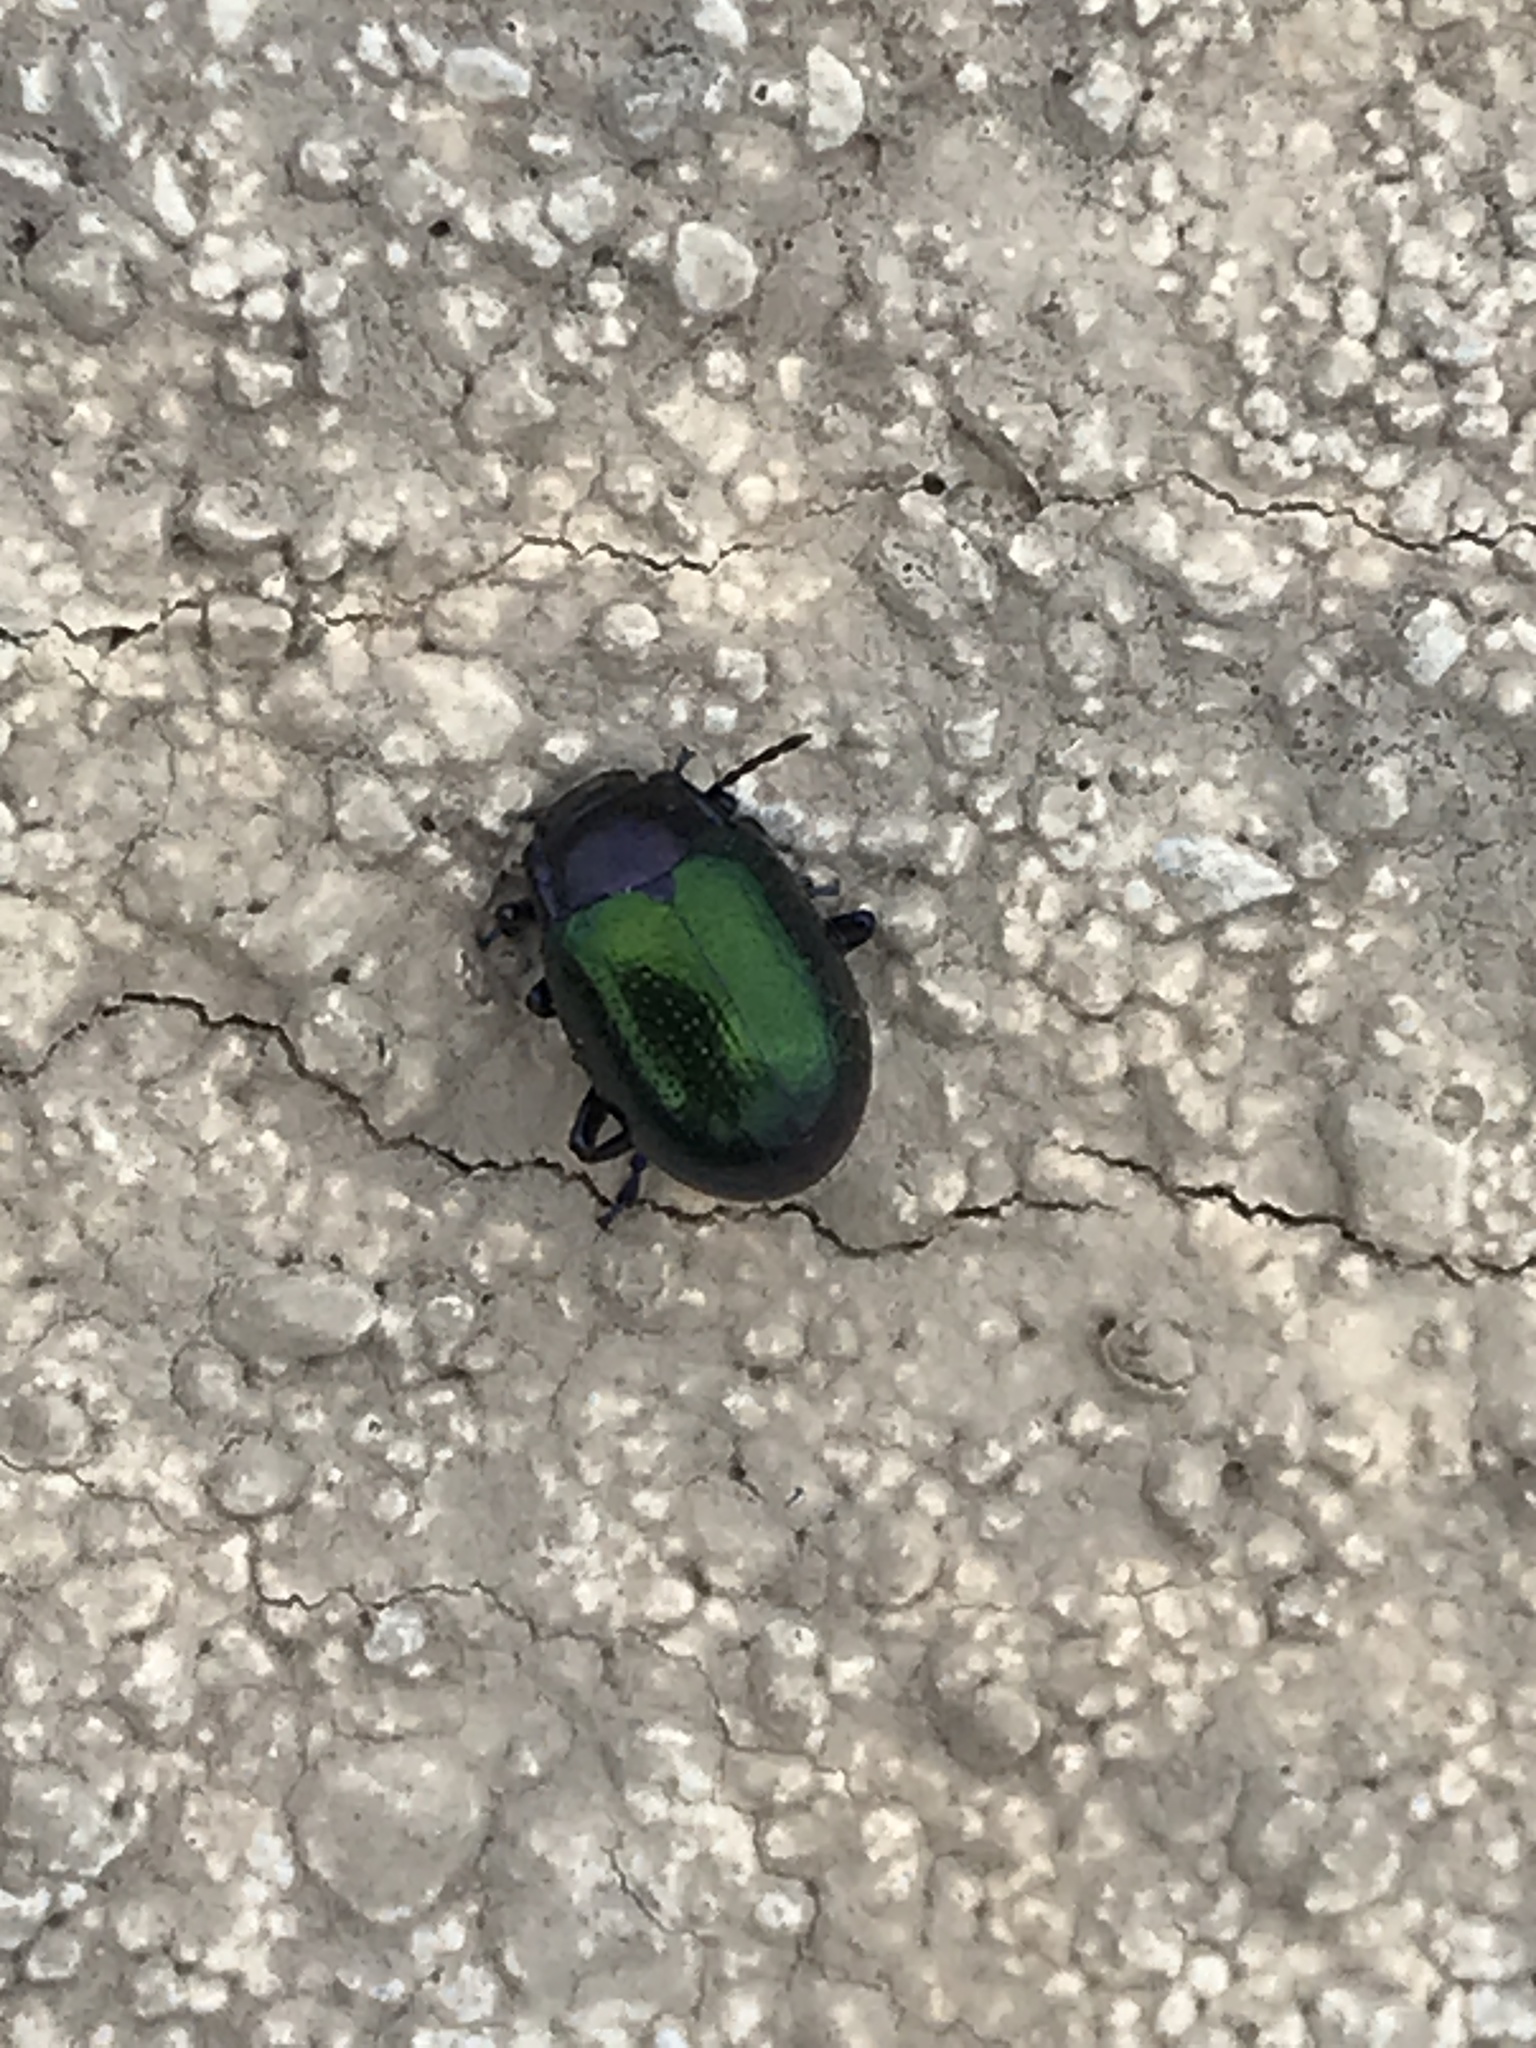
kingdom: Animalia
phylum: Arthropoda
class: Insecta
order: Coleoptera
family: Chrysomelidae
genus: Chrysolina
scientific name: Chrysolina auripennis
